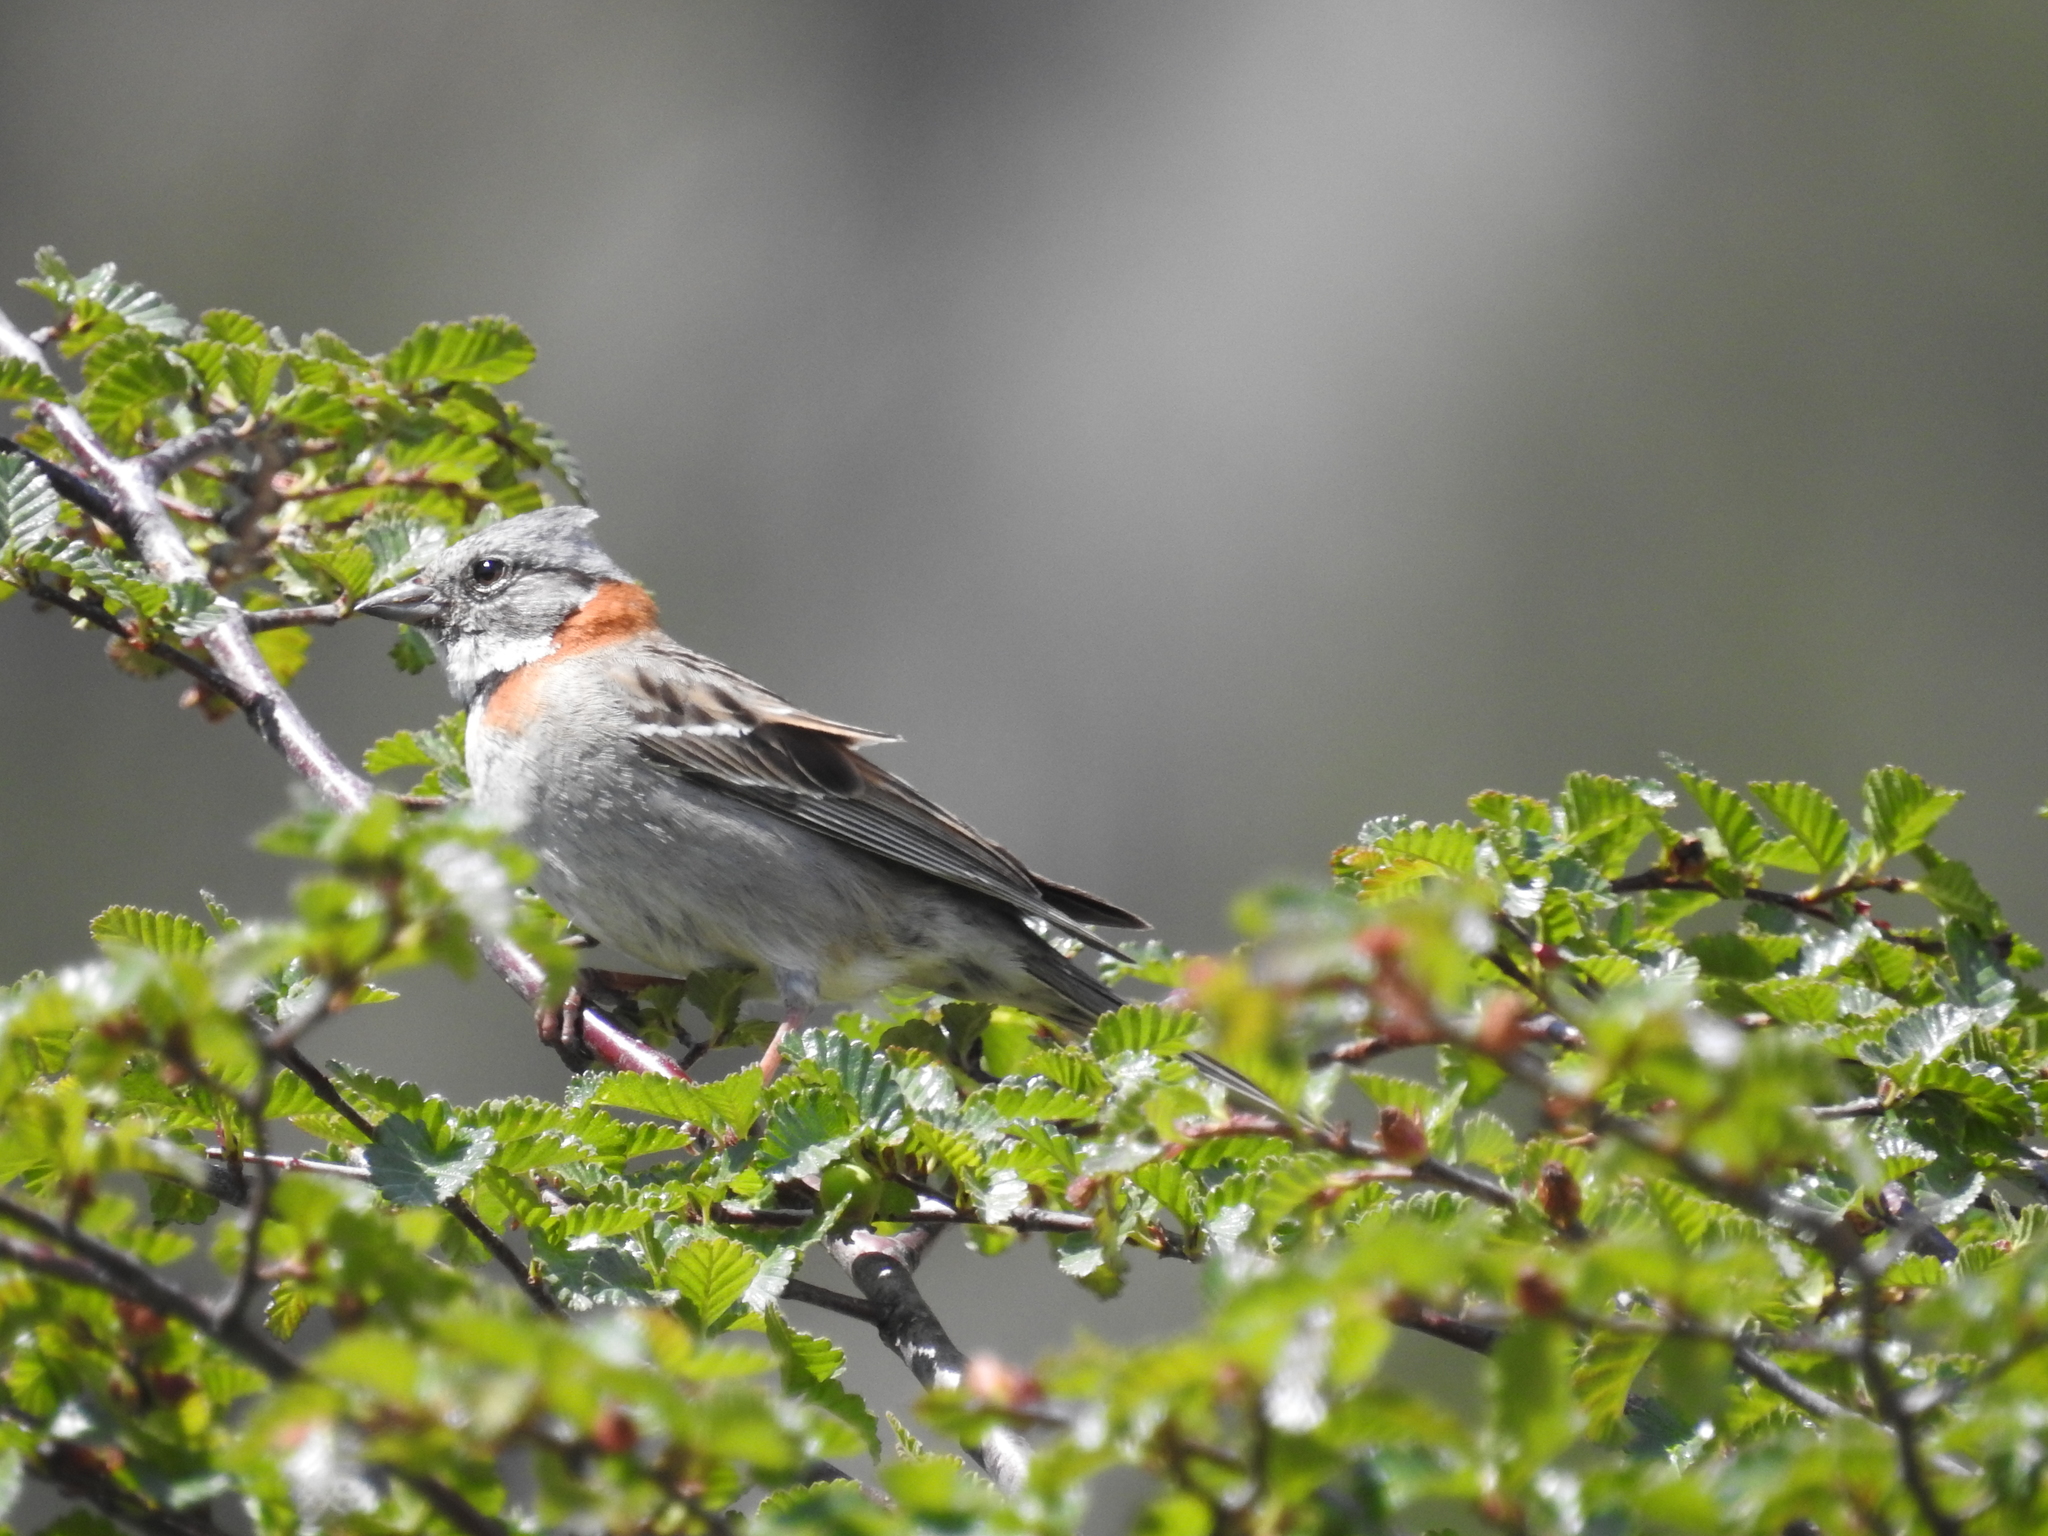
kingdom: Animalia
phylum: Chordata
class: Aves
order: Passeriformes
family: Passerellidae
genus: Zonotrichia
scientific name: Zonotrichia capensis
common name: Rufous-collared sparrow
